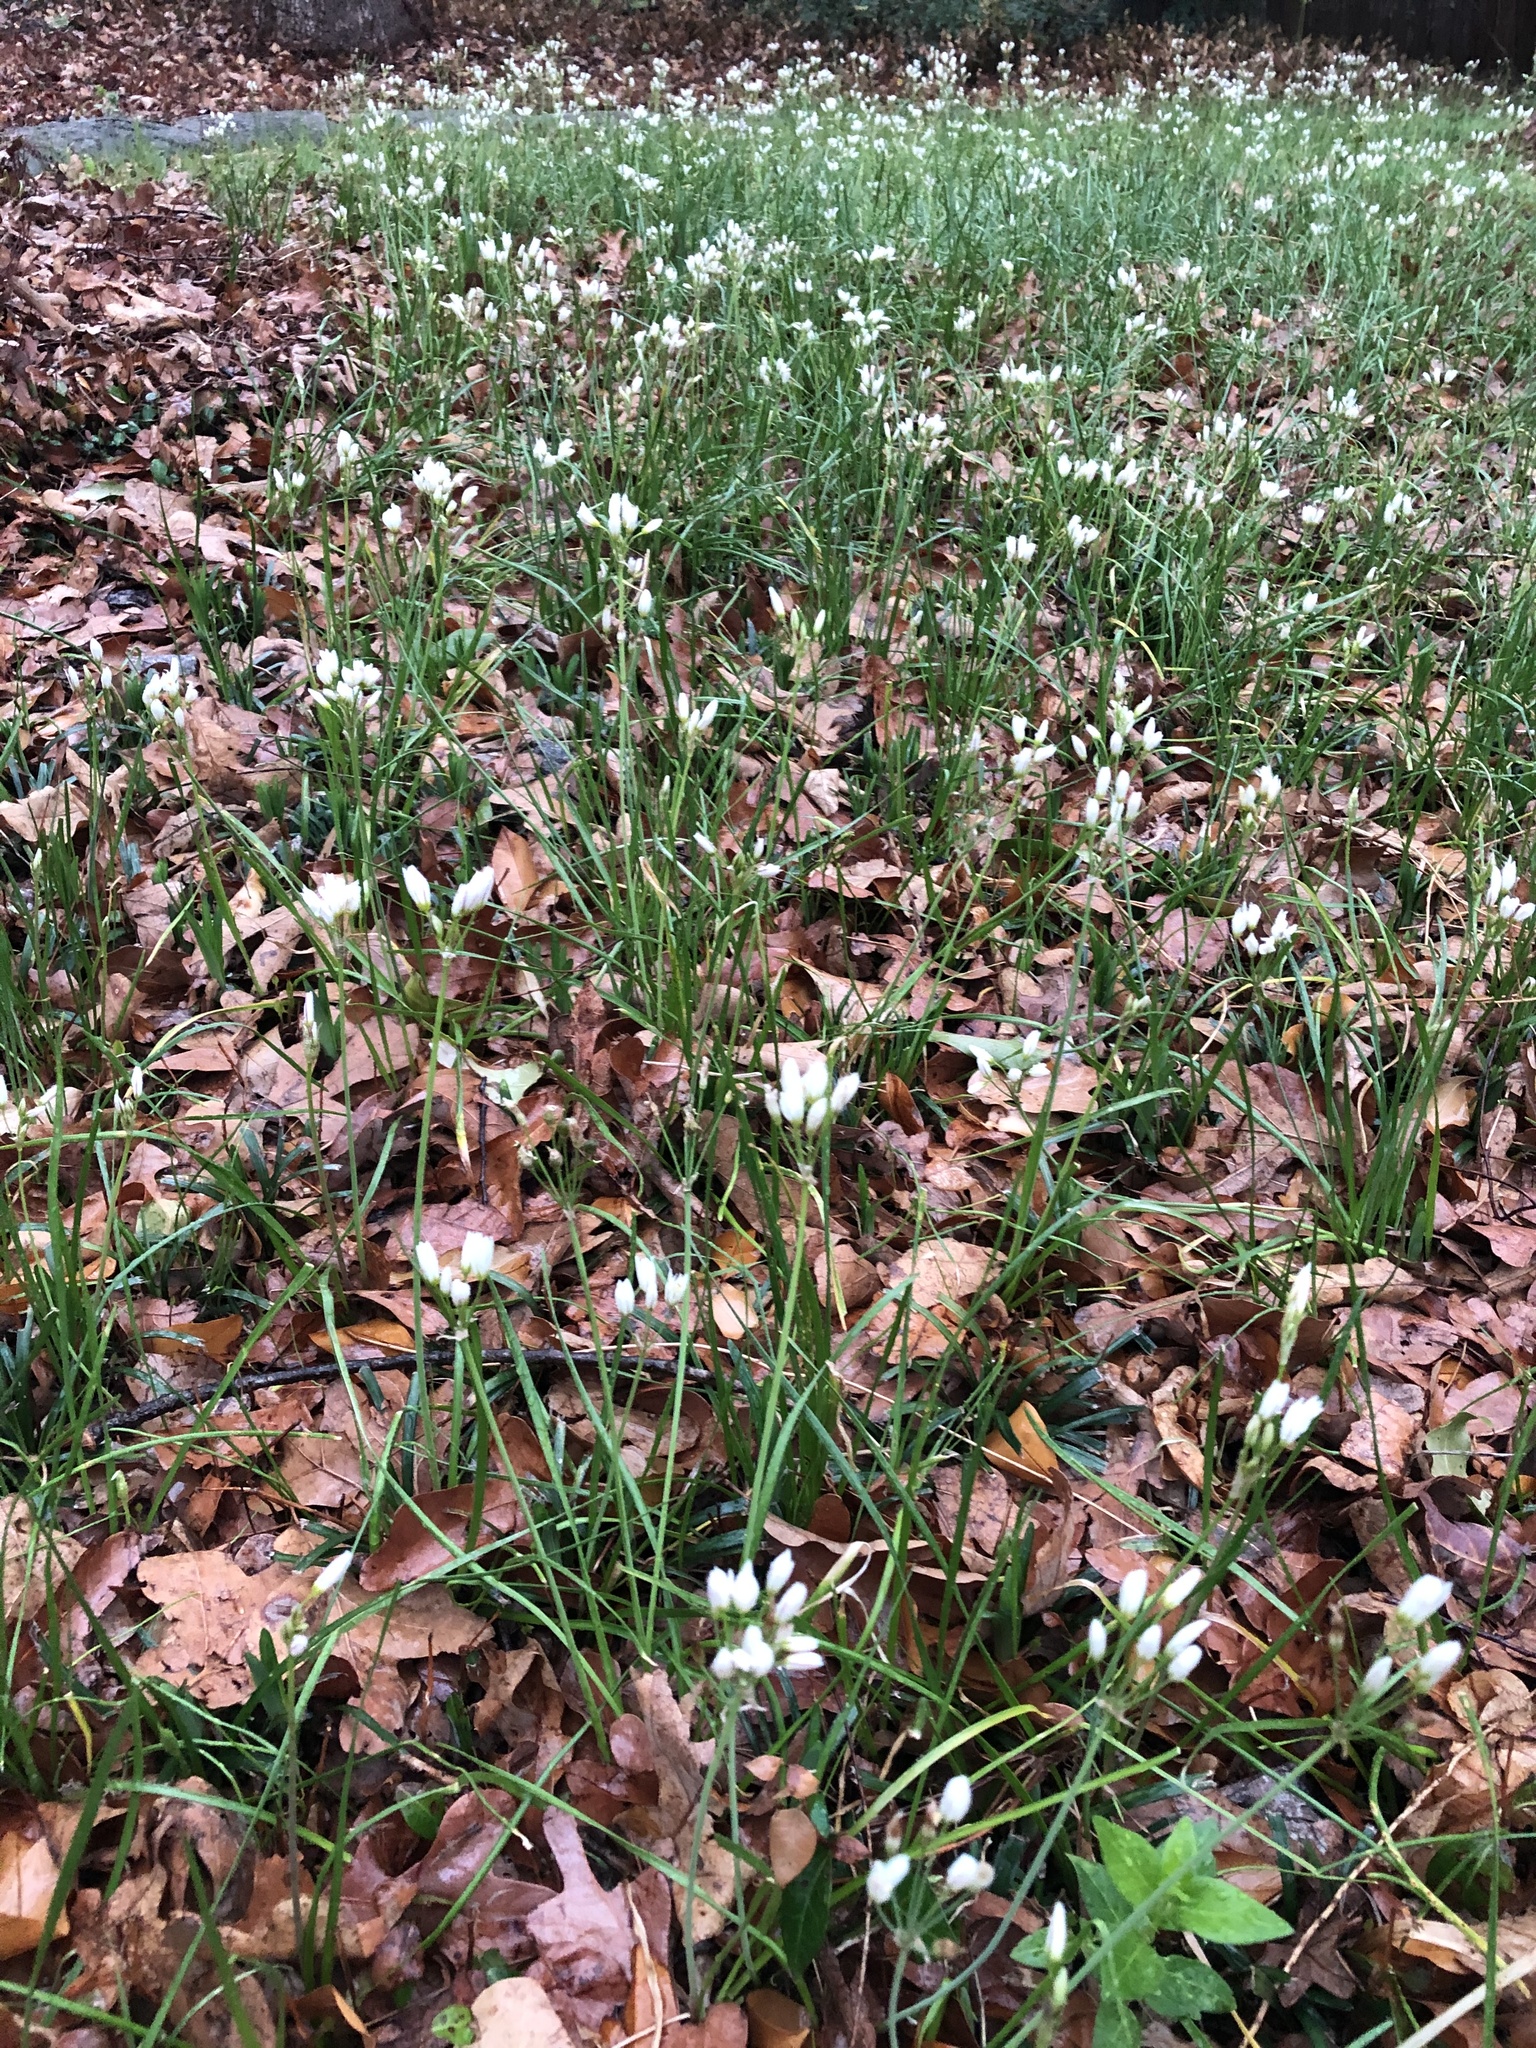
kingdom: Plantae
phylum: Tracheophyta
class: Liliopsida
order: Asparagales
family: Amaryllidaceae
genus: Nothoscordum
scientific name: Nothoscordum bivalve
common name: Crow-poison
